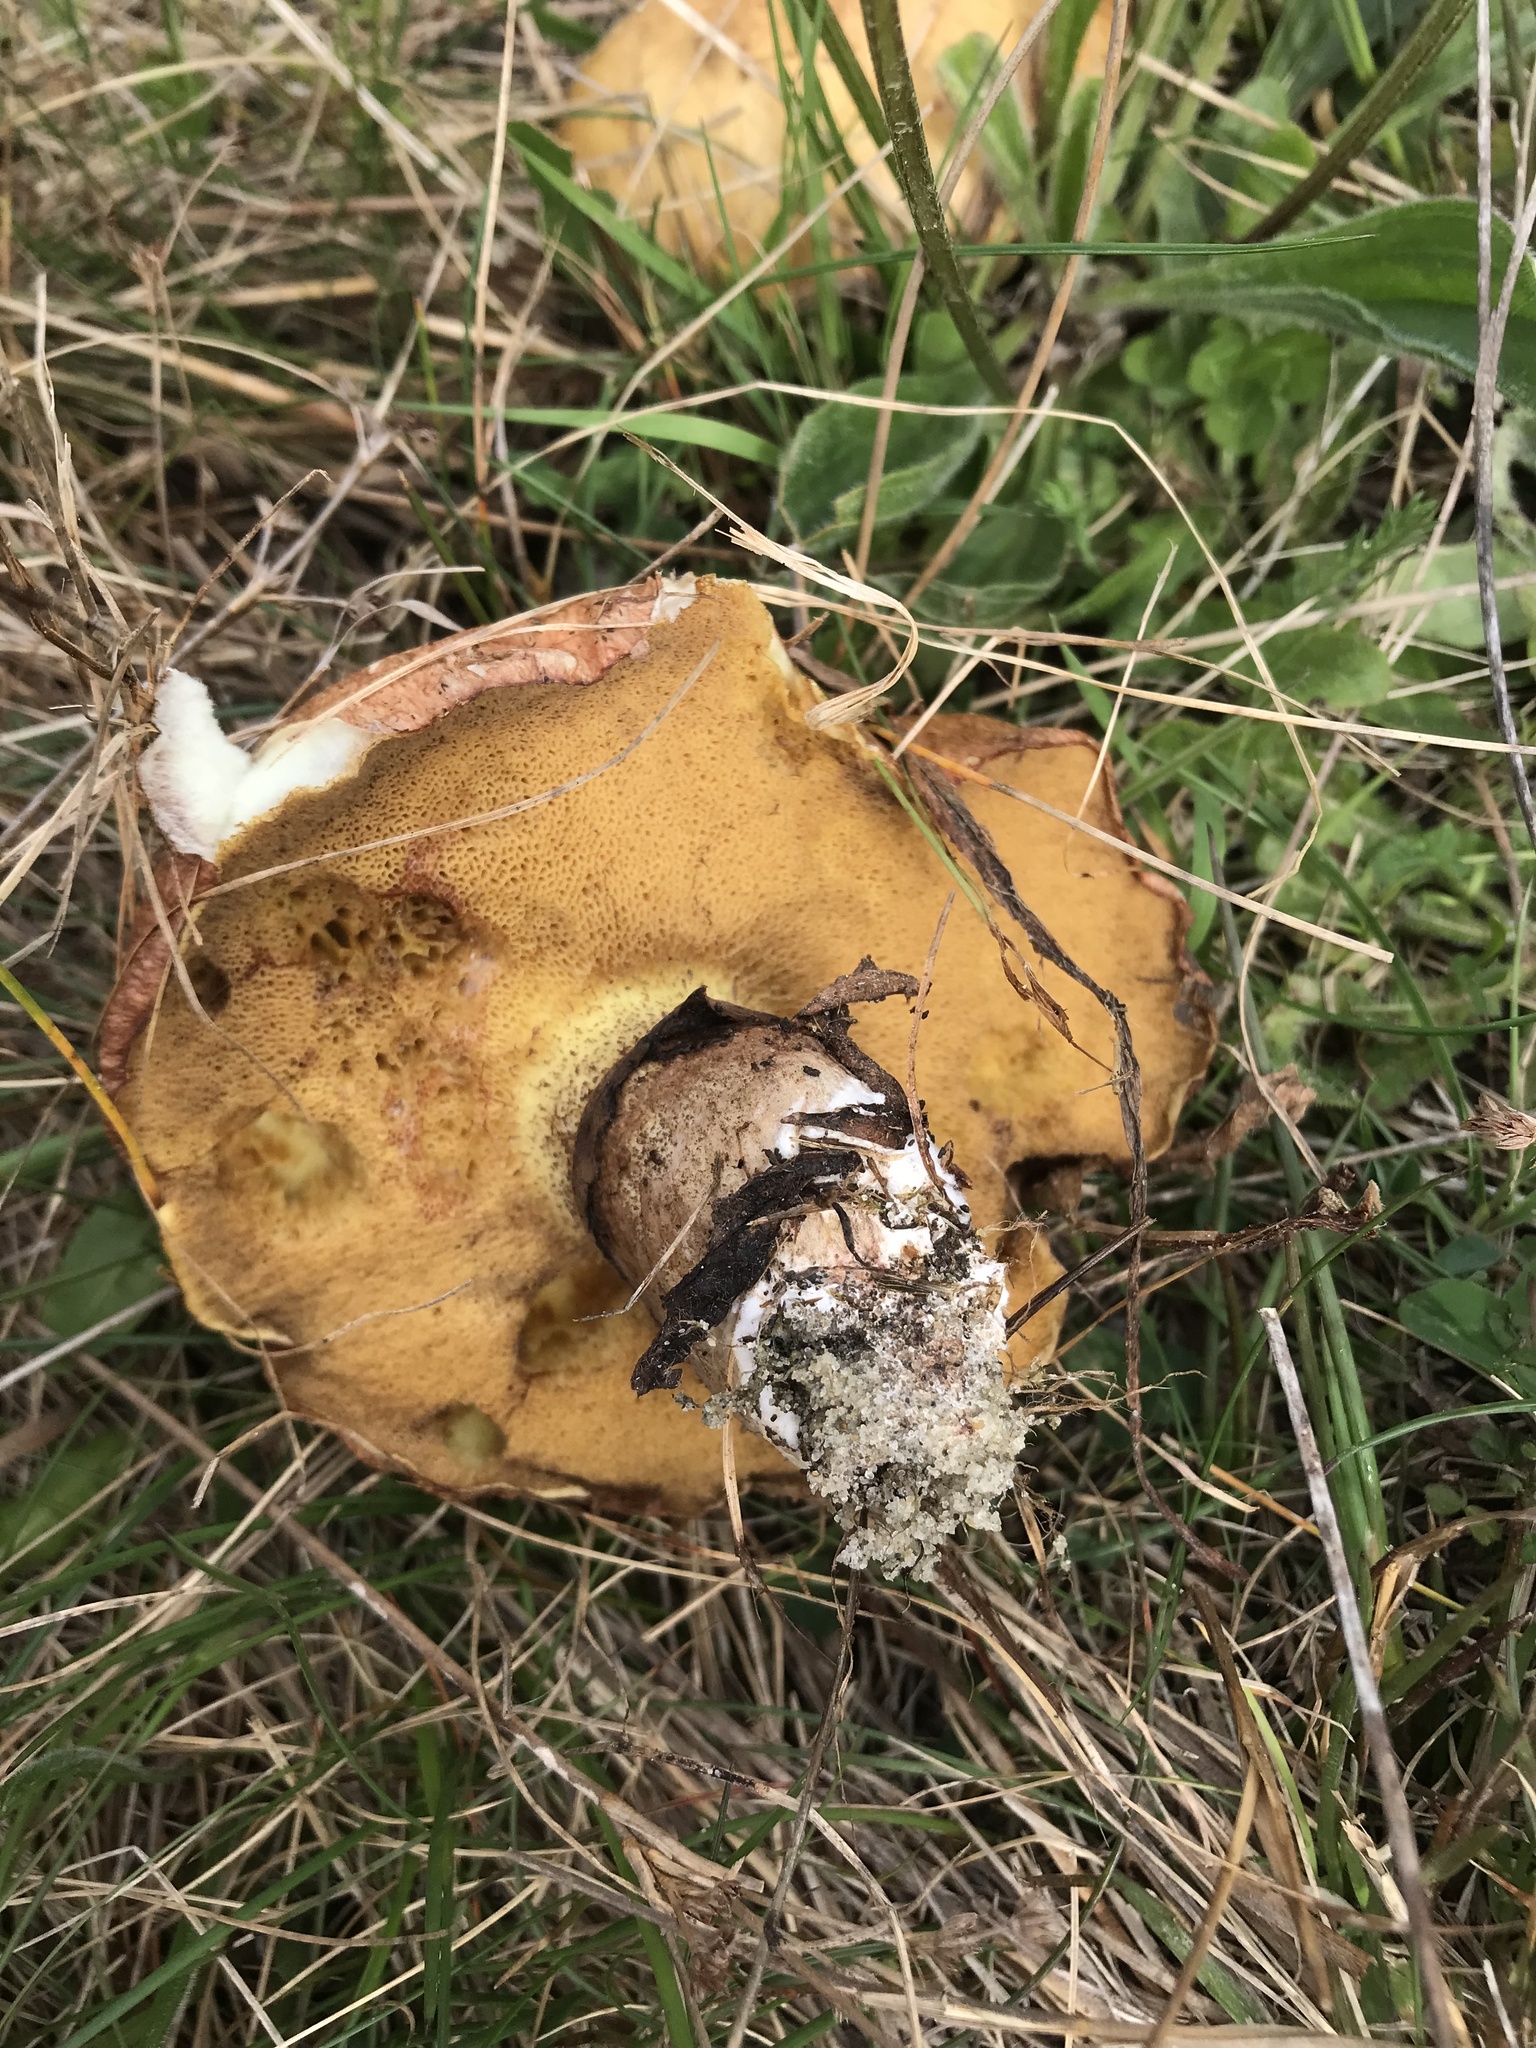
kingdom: Fungi
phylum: Basidiomycota
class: Agaricomycetes
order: Boletales
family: Suillaceae
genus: Suillus
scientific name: Suillus luteus
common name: Slippery jack
